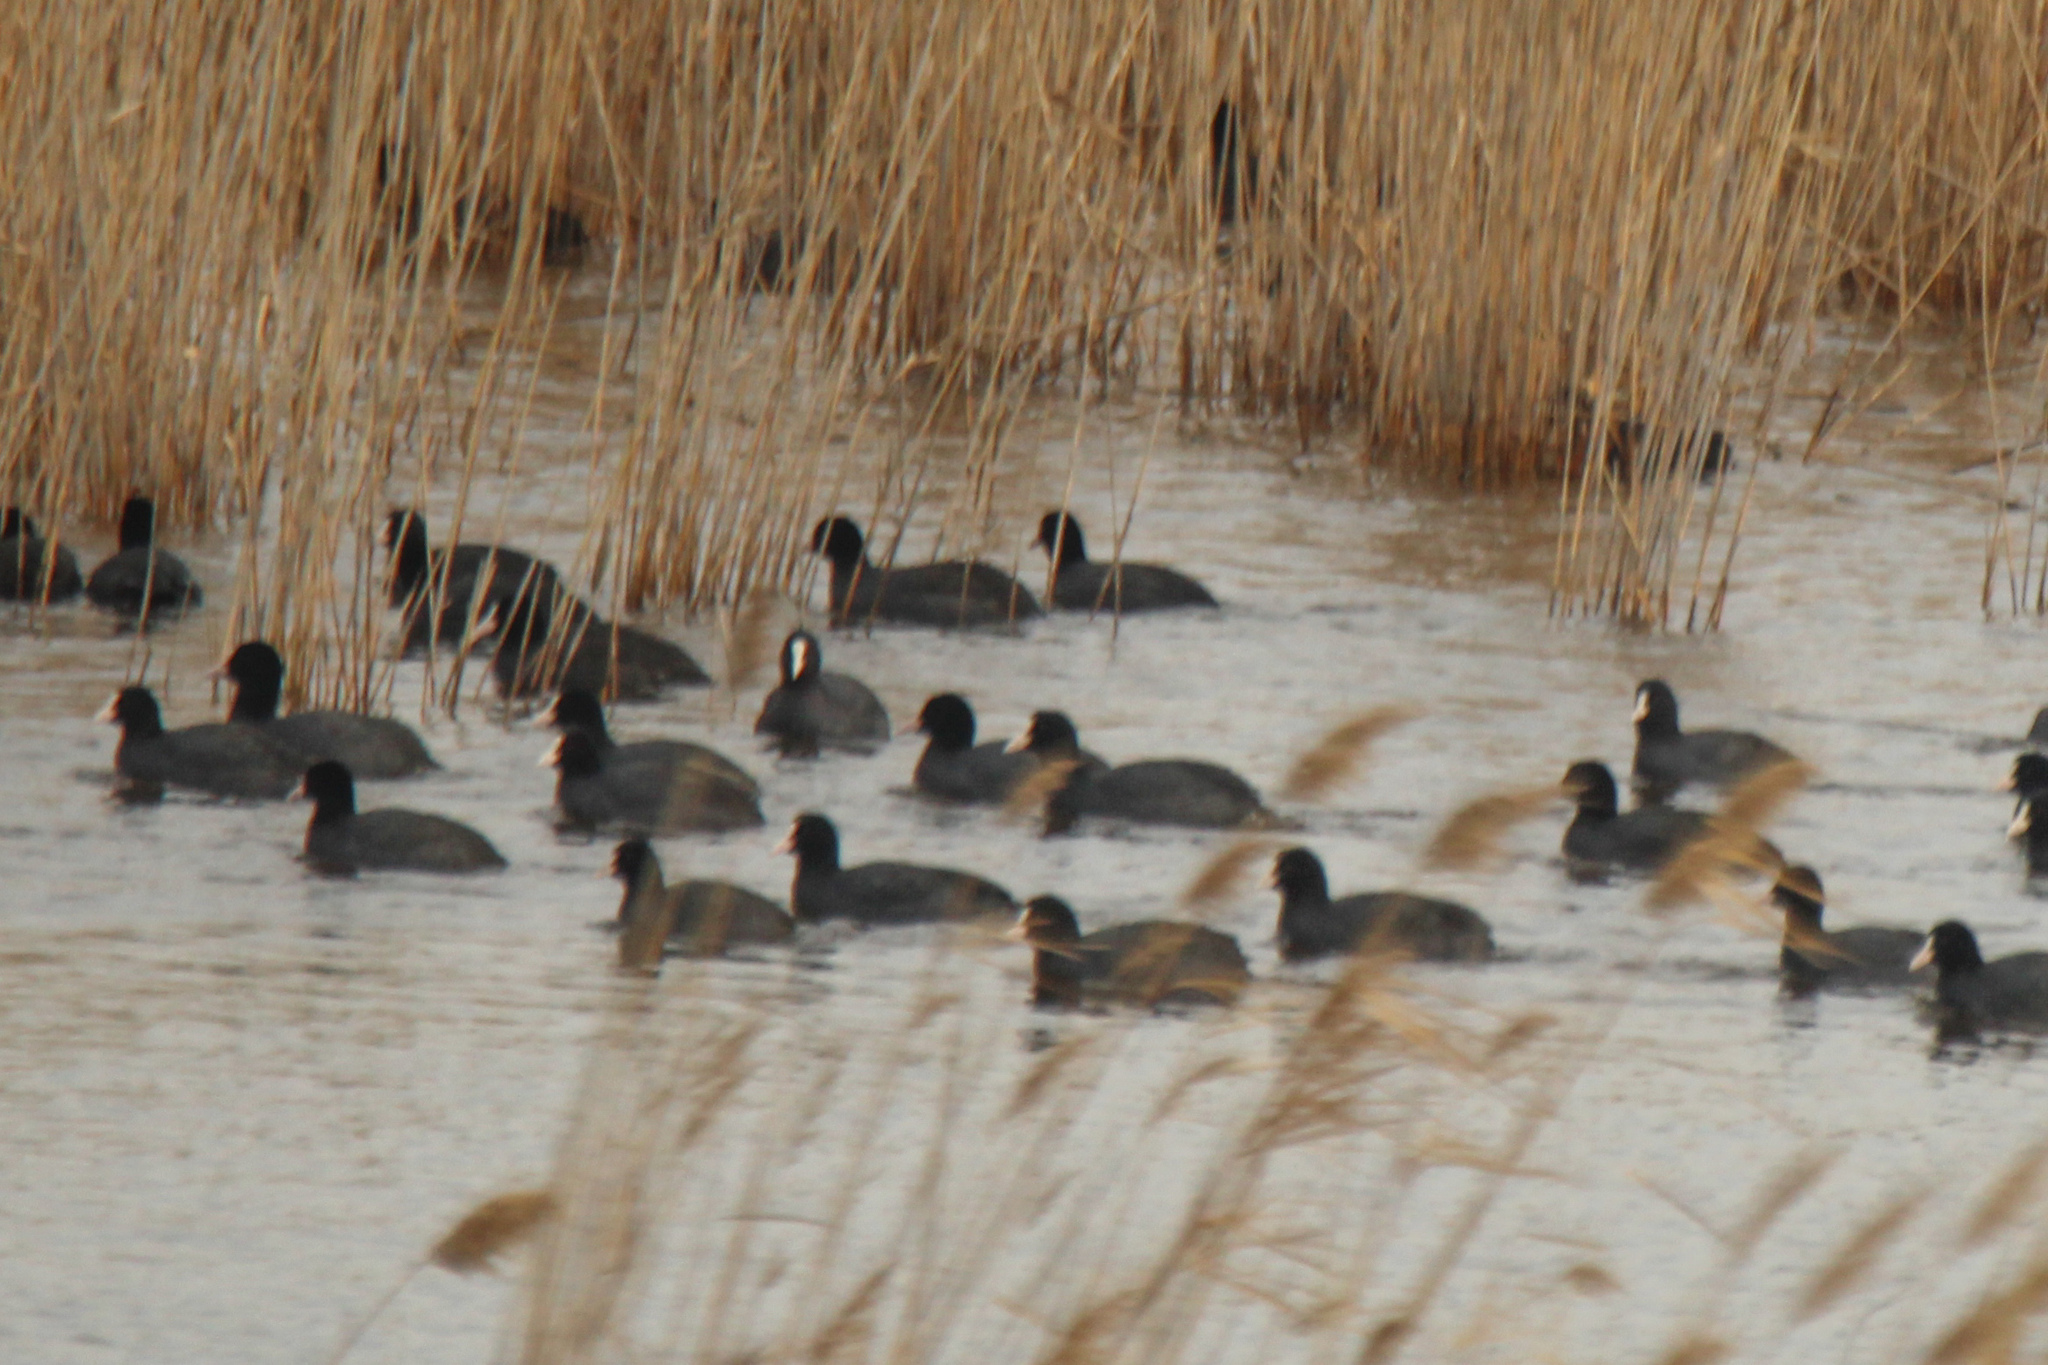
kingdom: Animalia
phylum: Chordata
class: Aves
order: Gruiformes
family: Rallidae
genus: Fulica
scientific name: Fulica atra
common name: Eurasian coot
